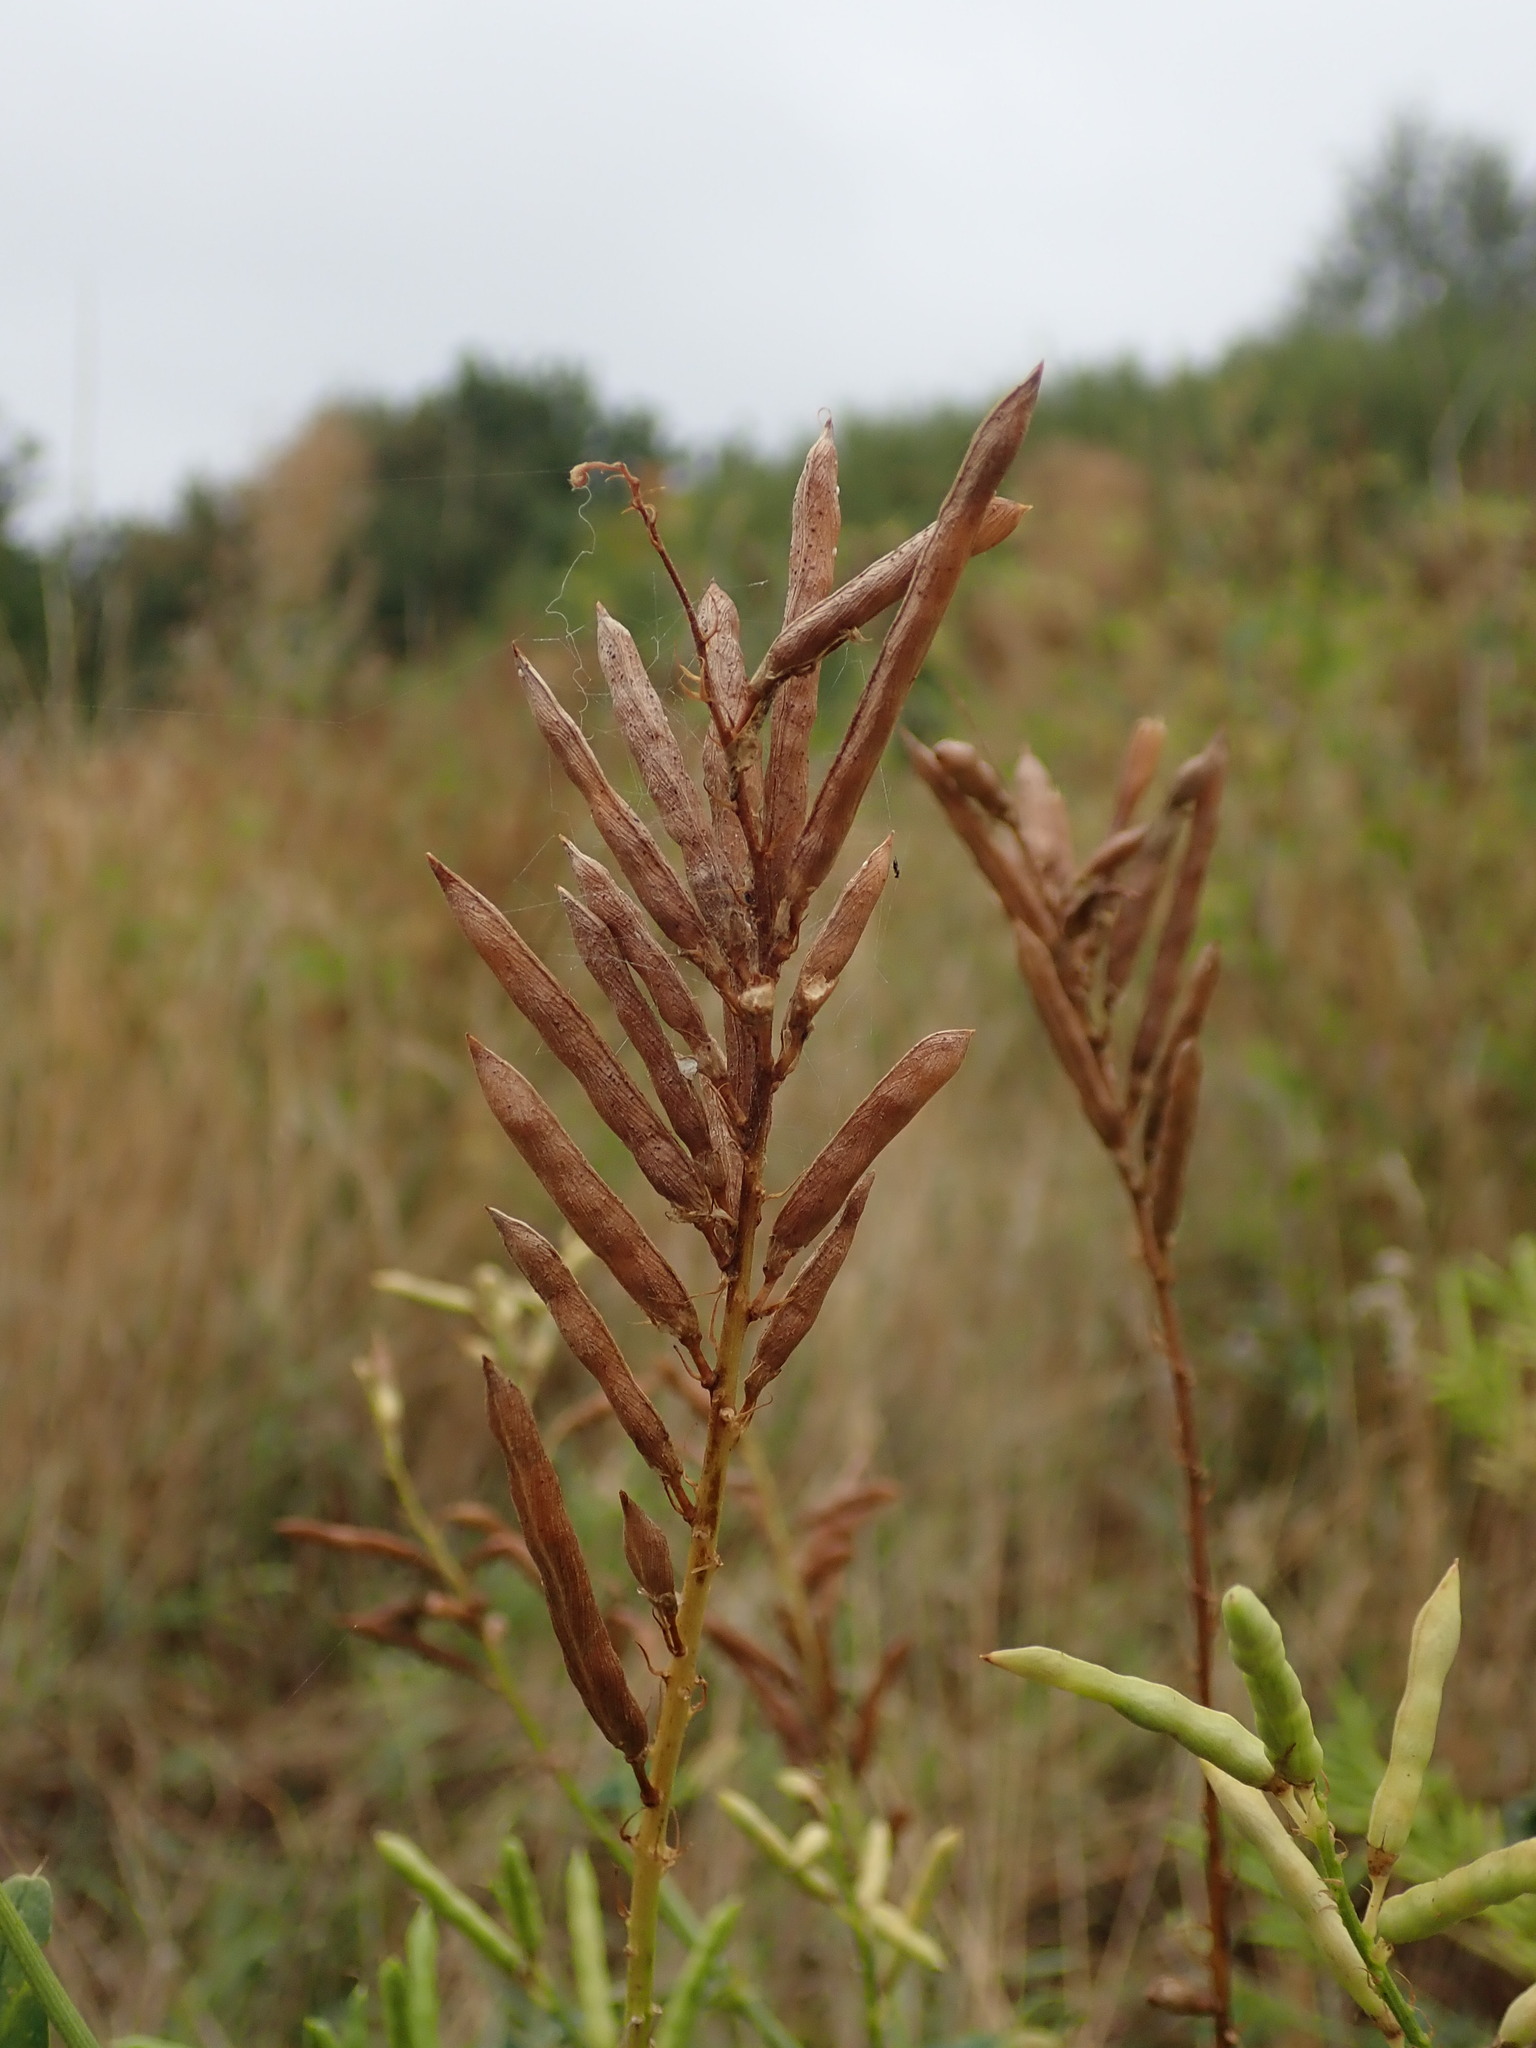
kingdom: Plantae
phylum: Tracheophyta
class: Magnoliopsida
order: Fabales
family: Fabaceae
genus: Galega
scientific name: Galega officinalis
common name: Goat's-rue
